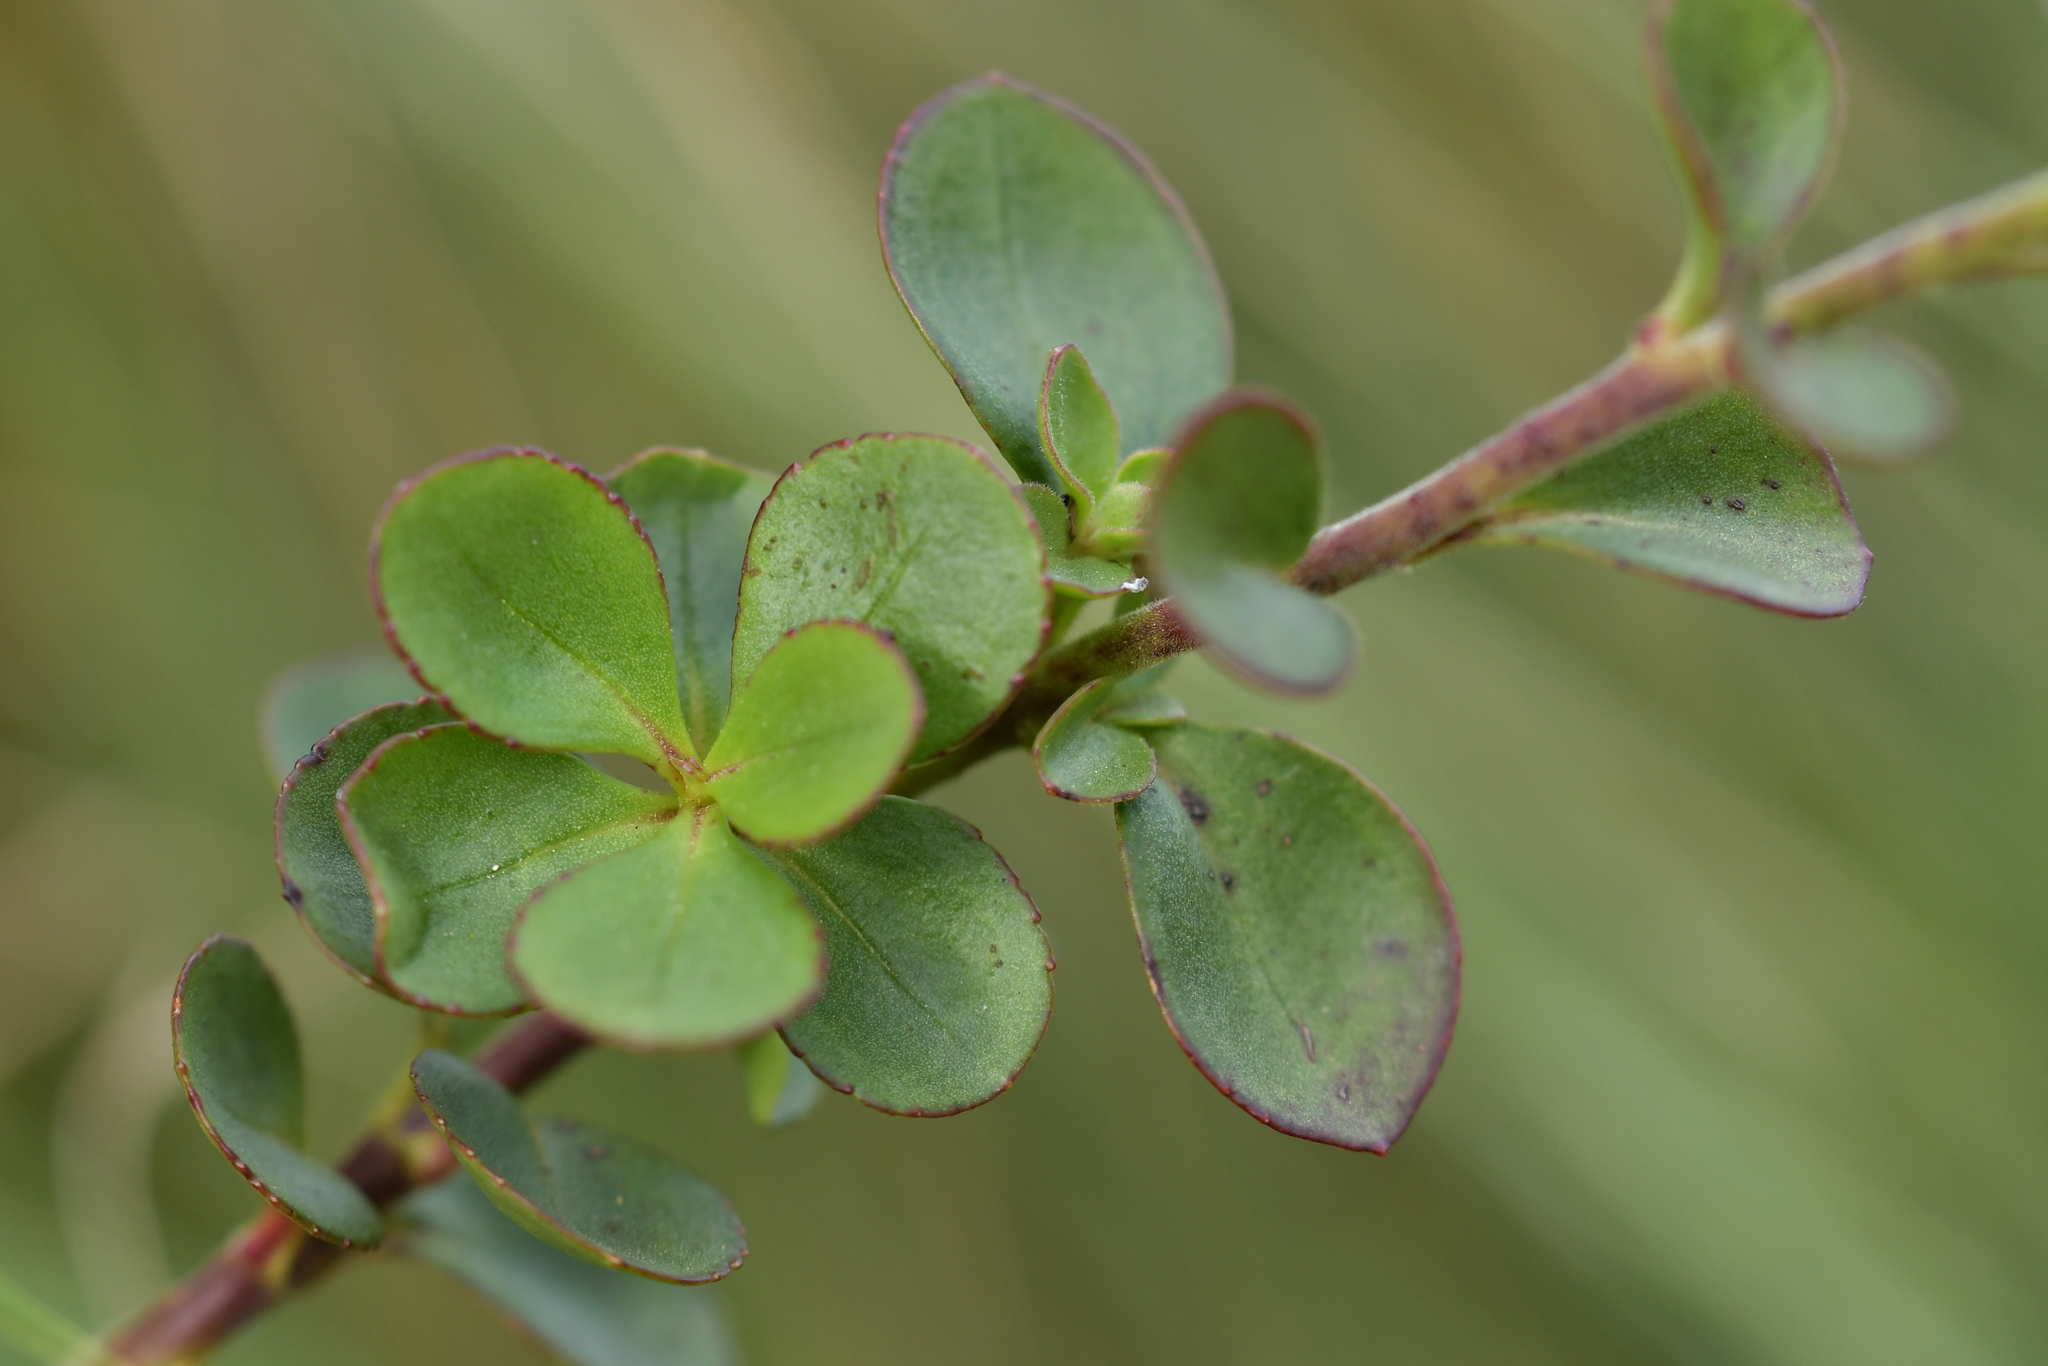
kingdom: Plantae
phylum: Tracheophyta
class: Magnoliopsida
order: Lamiales
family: Plantaginaceae
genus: Veronica
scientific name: Veronica lavaudiana
